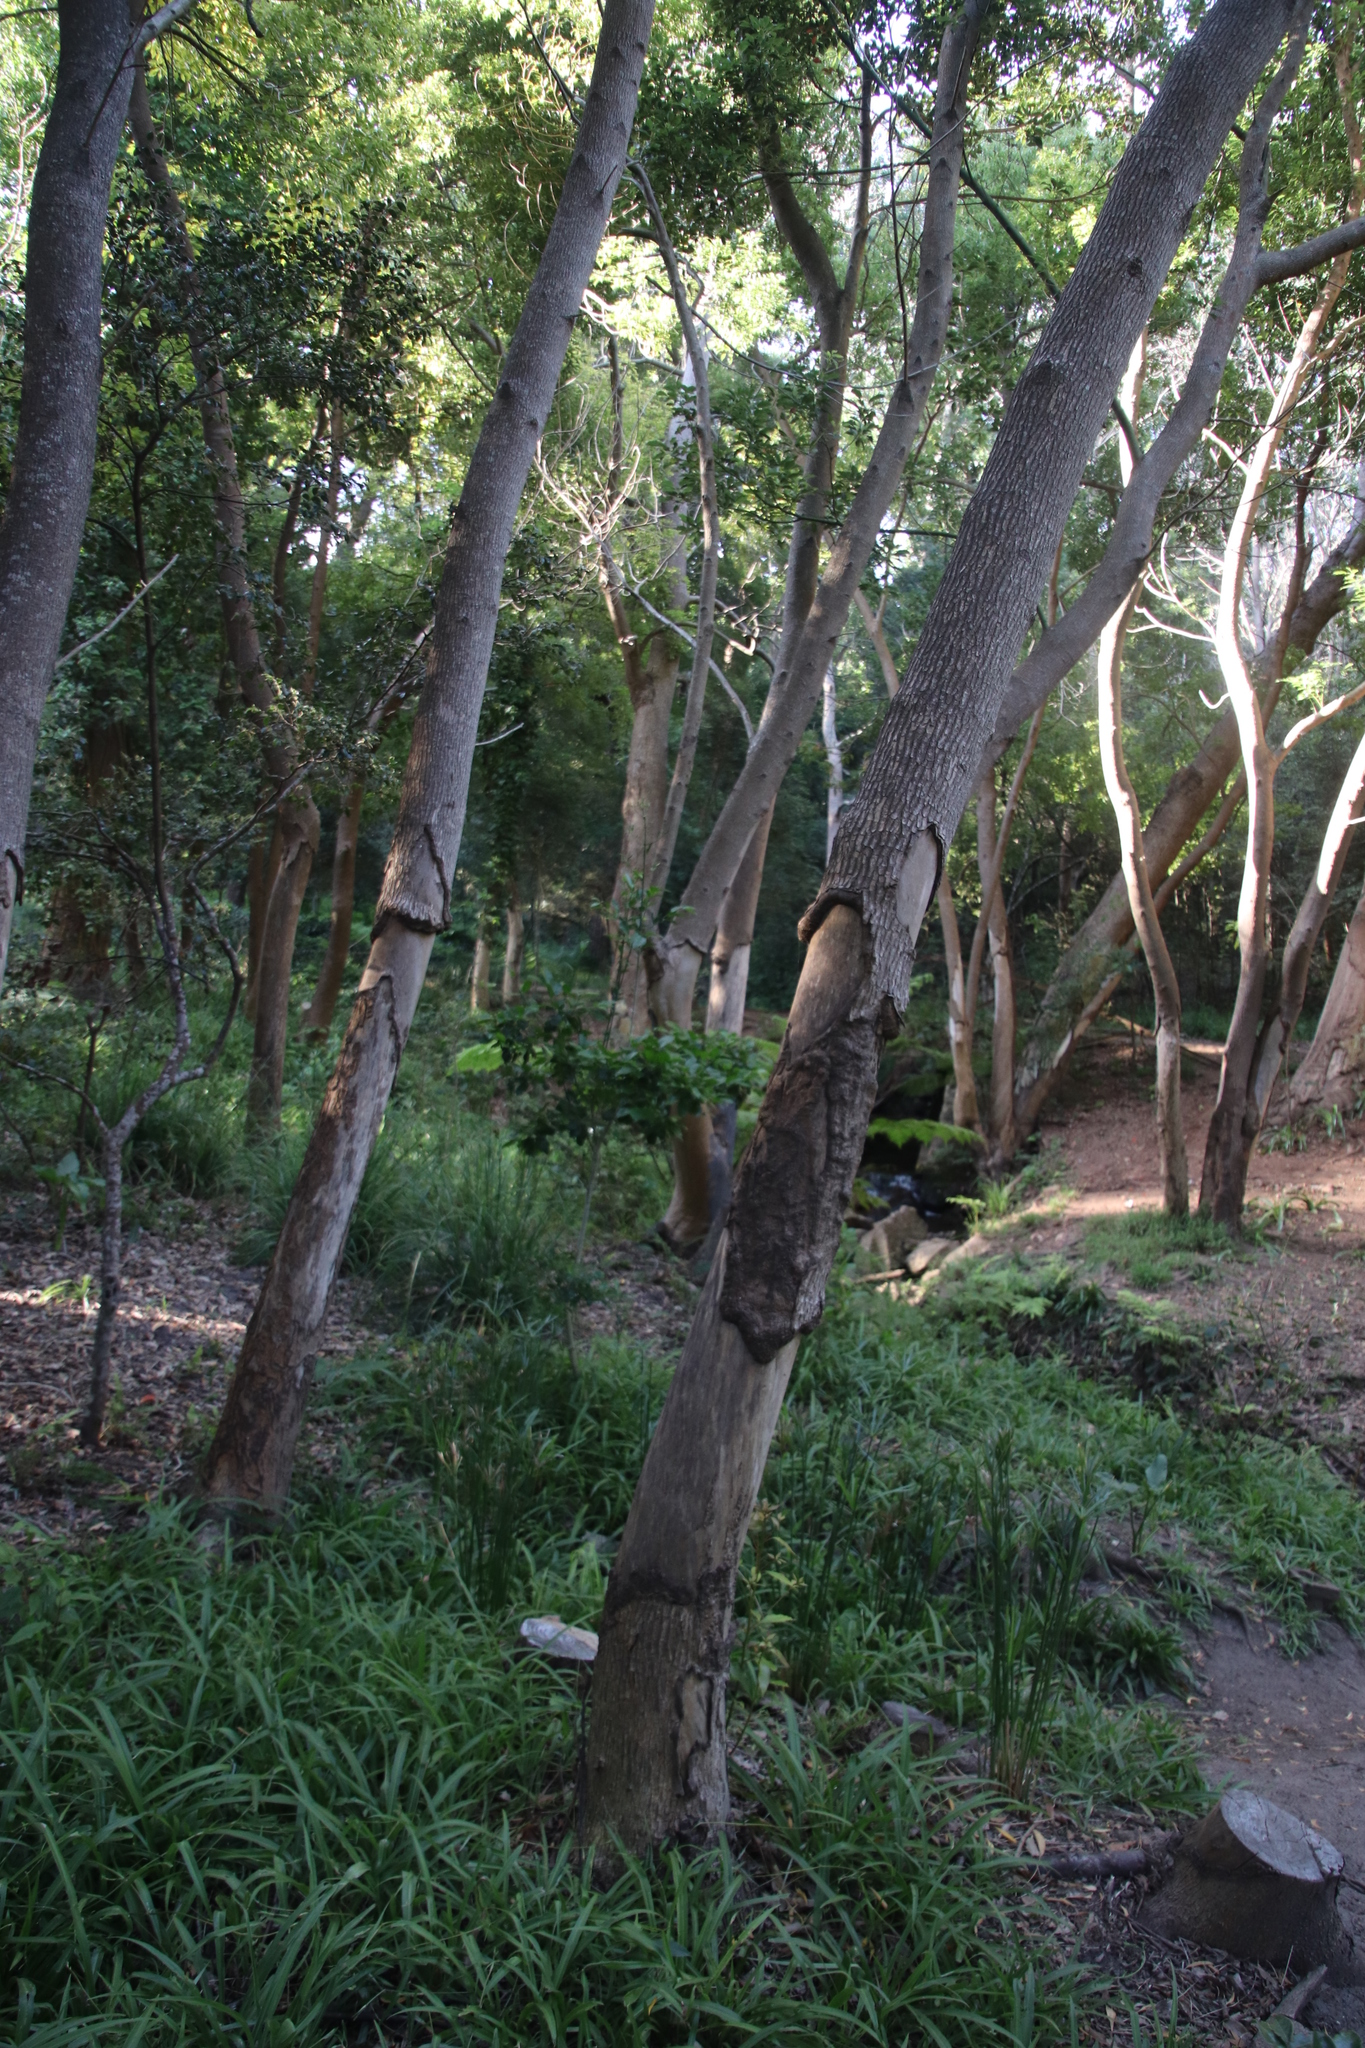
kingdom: Plantae
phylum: Tracheophyta
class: Magnoliopsida
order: Laurales
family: Lauraceae
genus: Cinnamomum
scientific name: Cinnamomum camphora
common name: Camphortree
